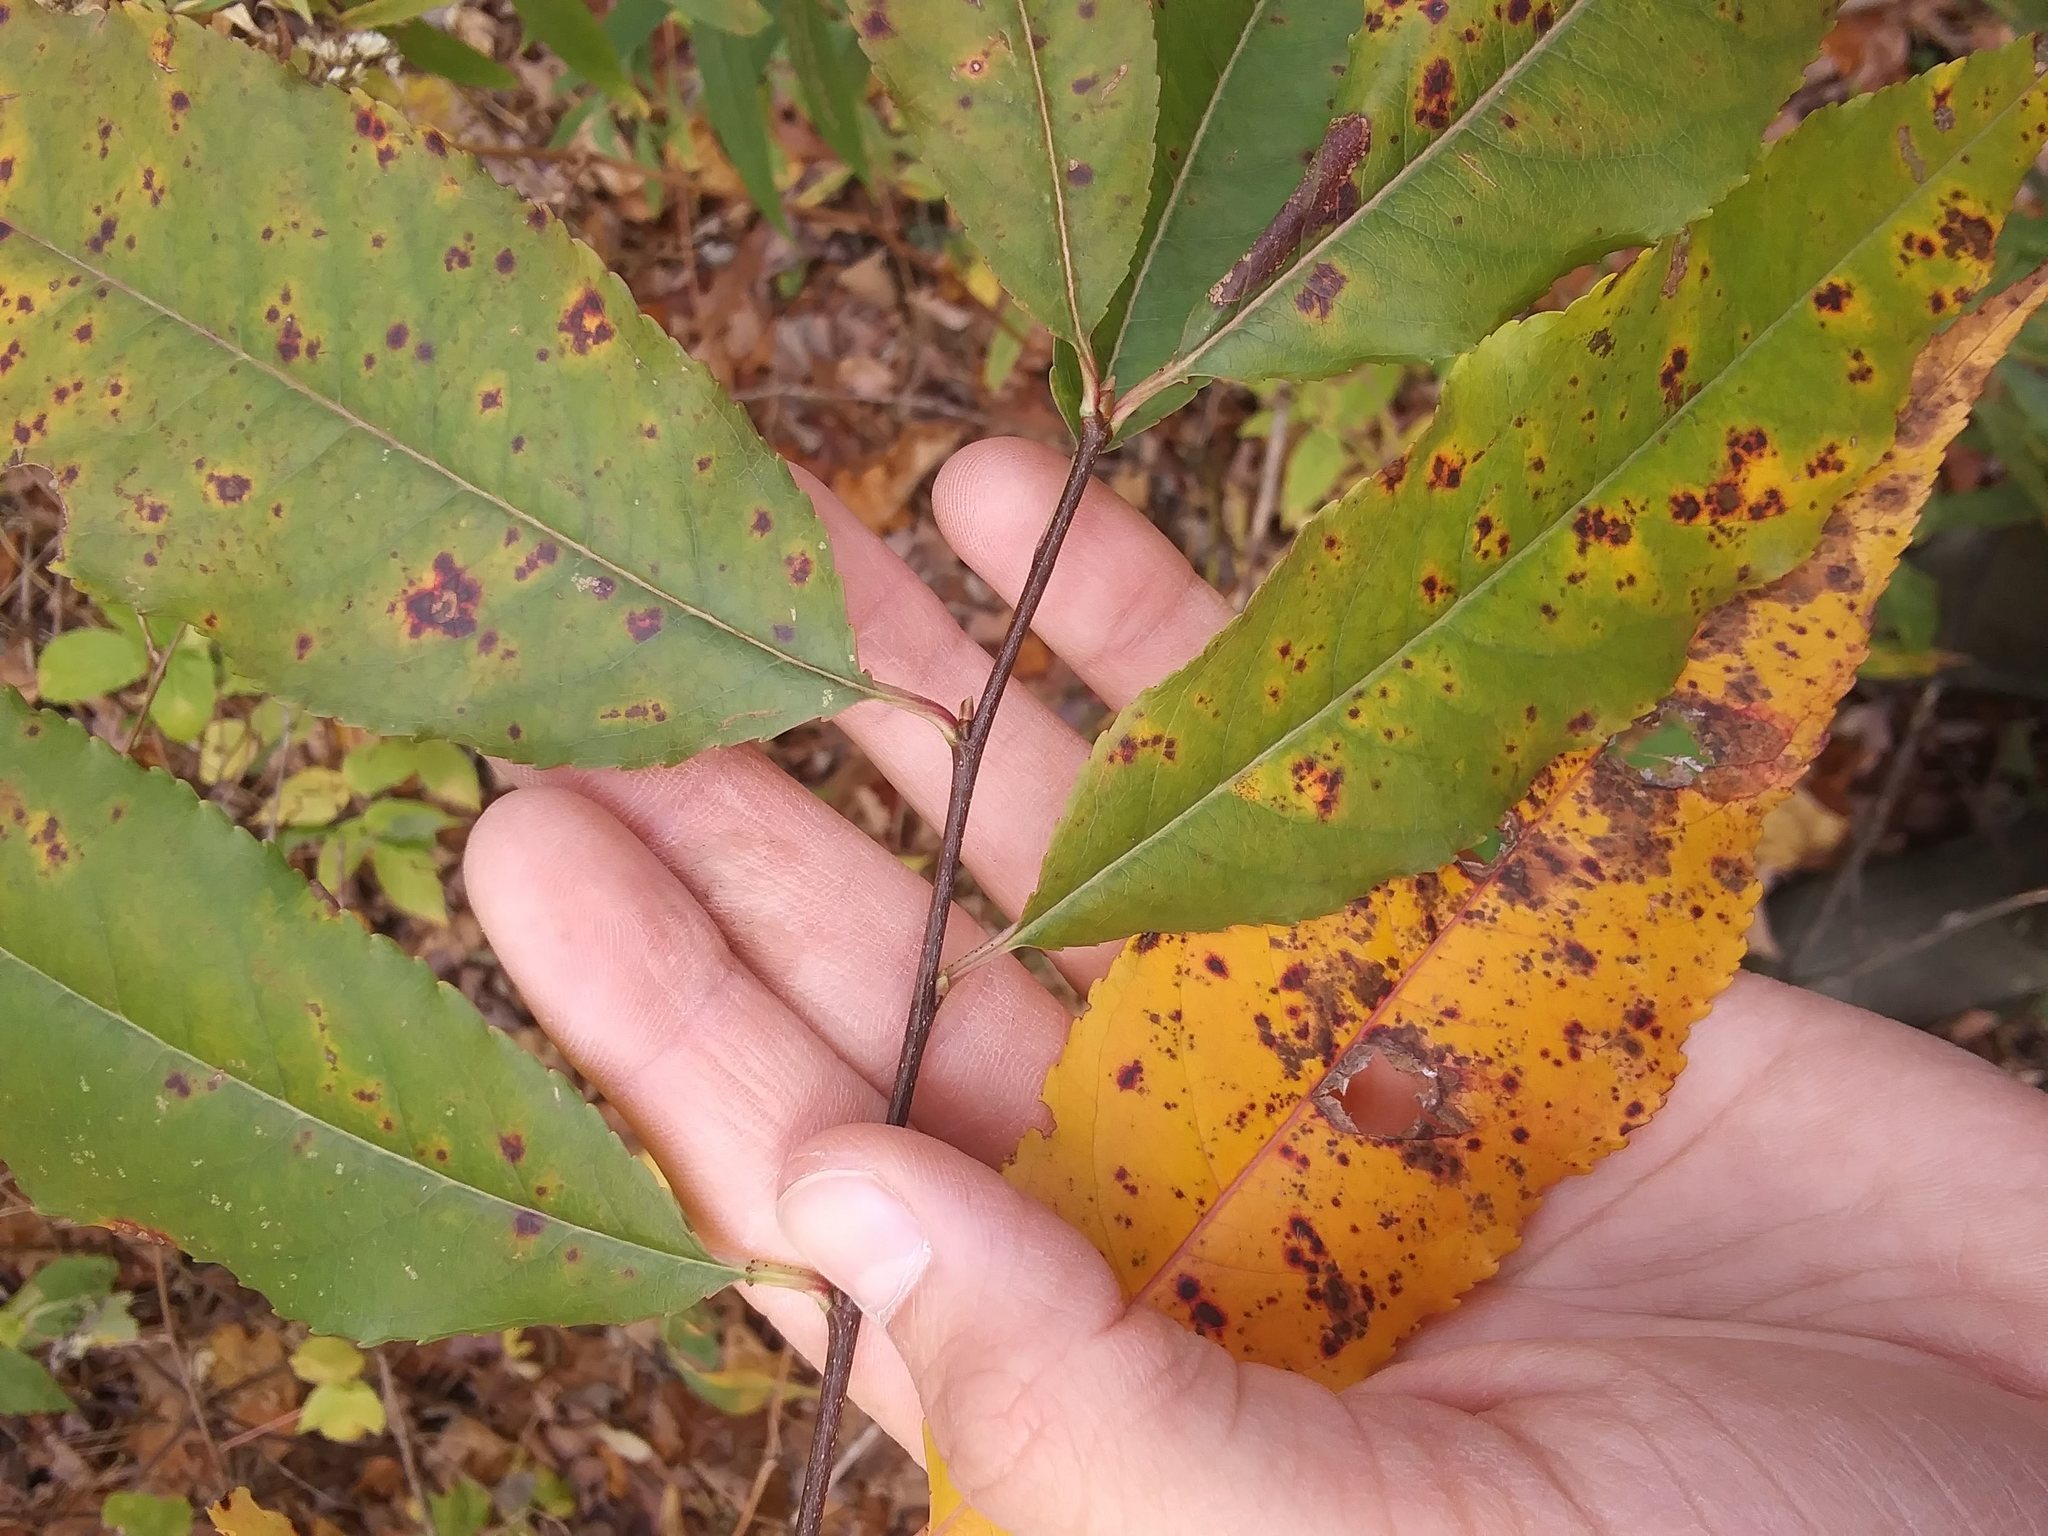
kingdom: Plantae
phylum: Tracheophyta
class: Magnoliopsida
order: Rosales
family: Rosaceae
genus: Prunus
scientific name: Prunus serotina
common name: Black cherry
